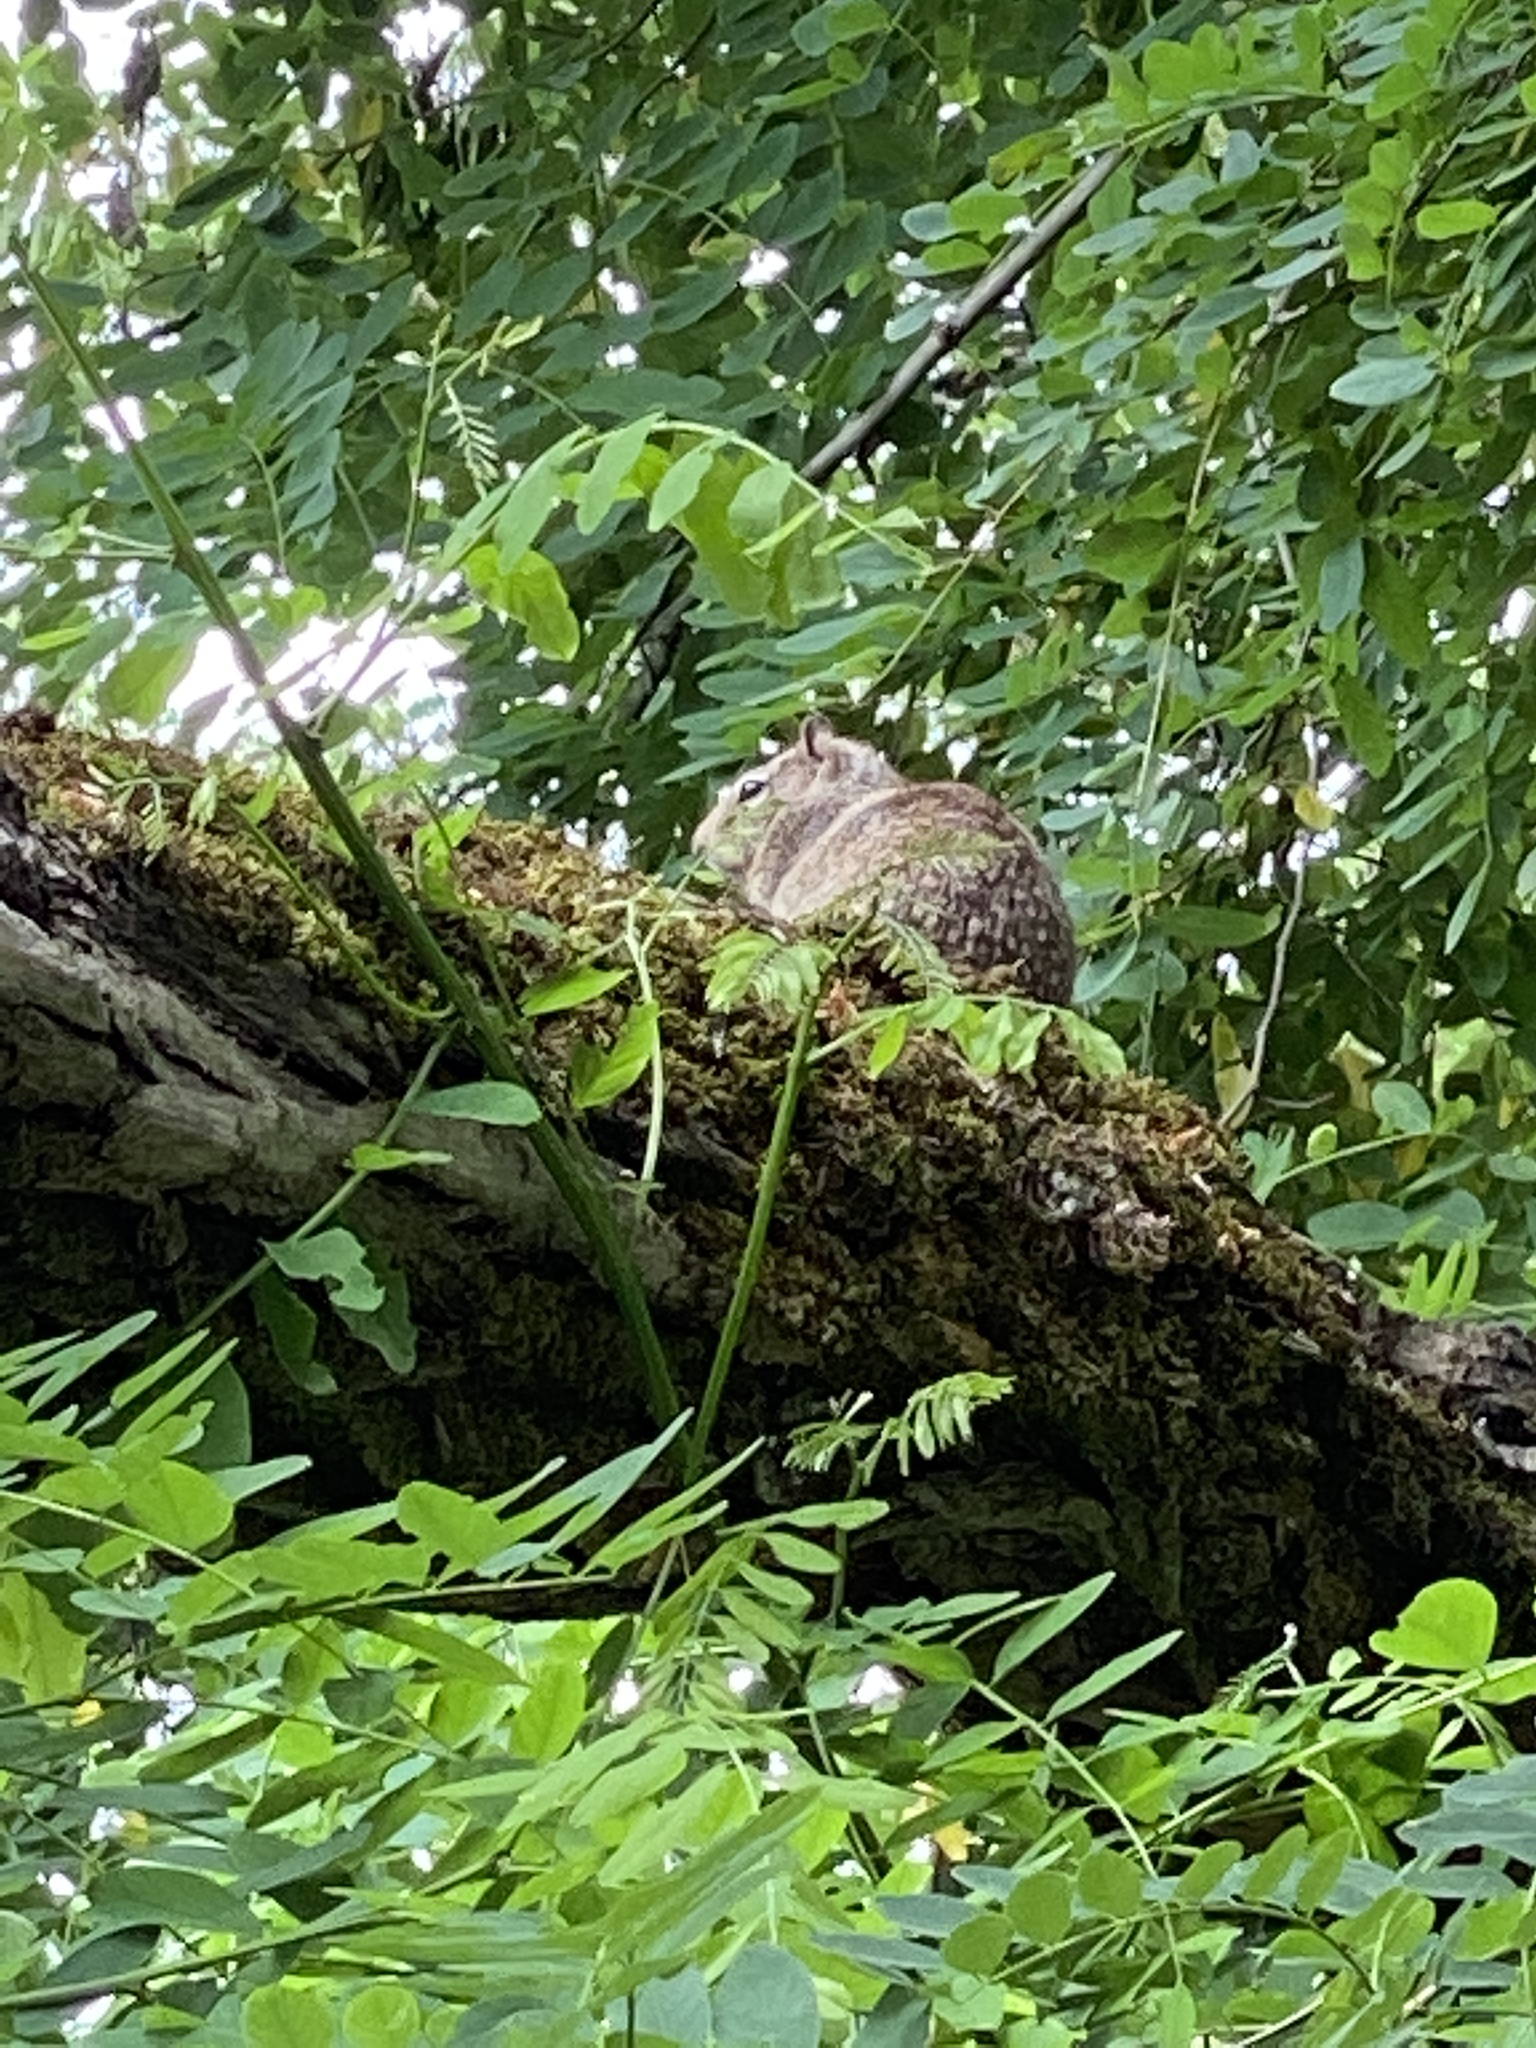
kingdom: Animalia
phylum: Chordata
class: Mammalia
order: Rodentia
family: Sciuridae
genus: Otospermophilus
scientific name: Otospermophilus beecheyi
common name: California ground squirrel
